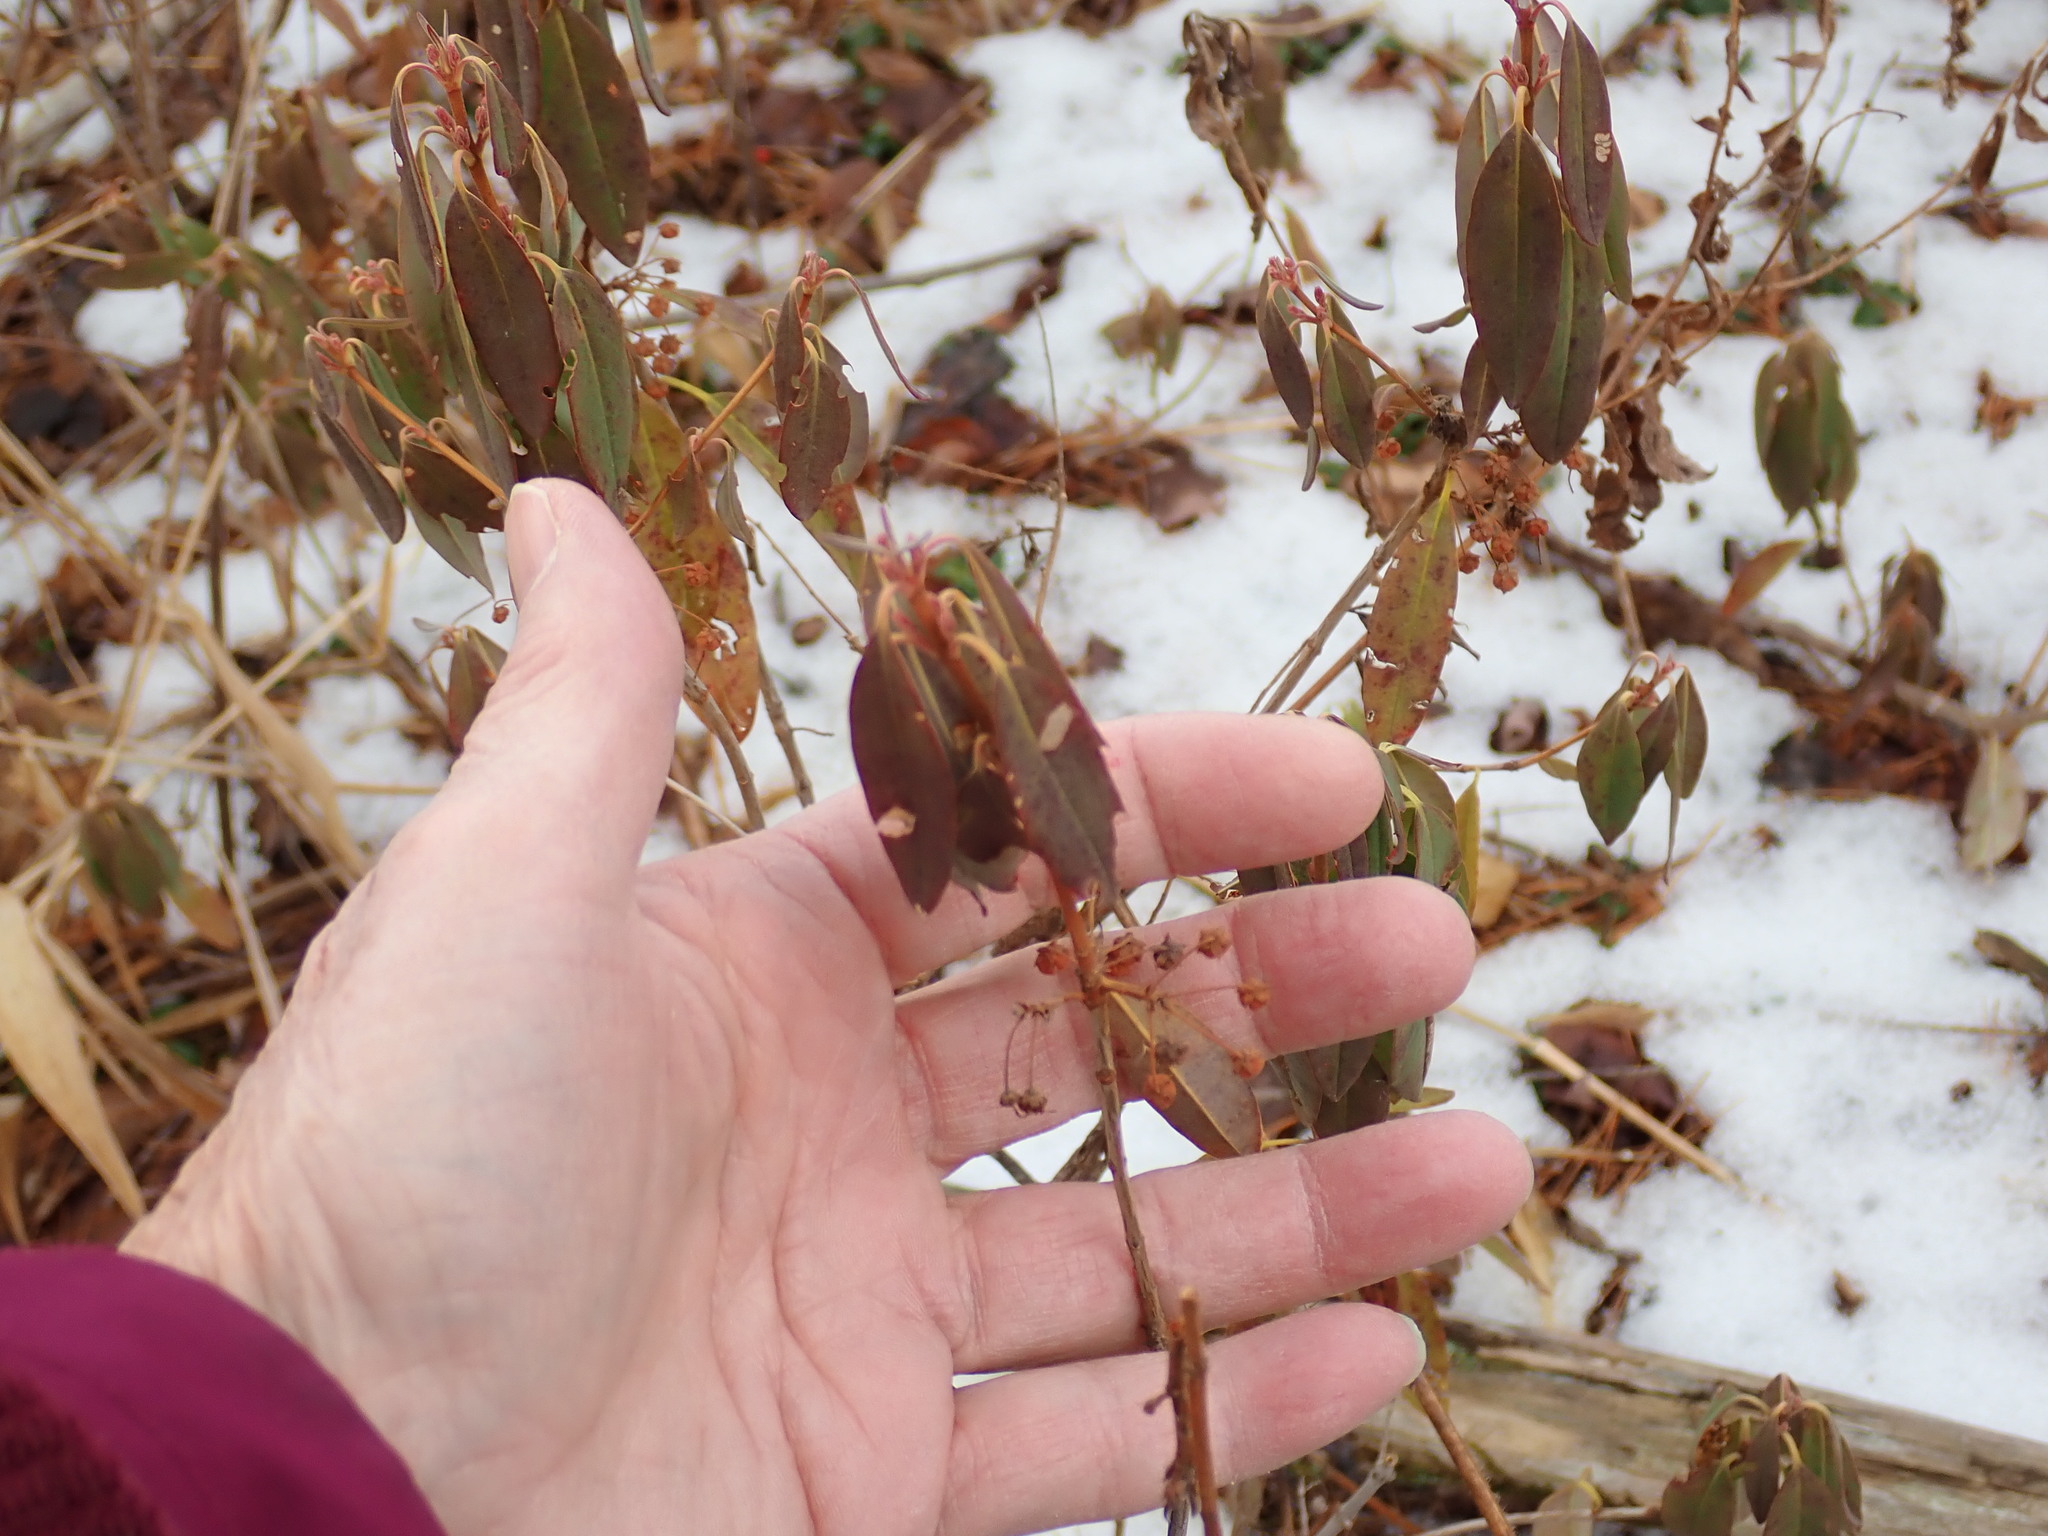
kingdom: Plantae
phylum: Tracheophyta
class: Magnoliopsida
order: Ericales
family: Ericaceae
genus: Kalmia
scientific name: Kalmia angustifolia
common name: Sheep-laurel
